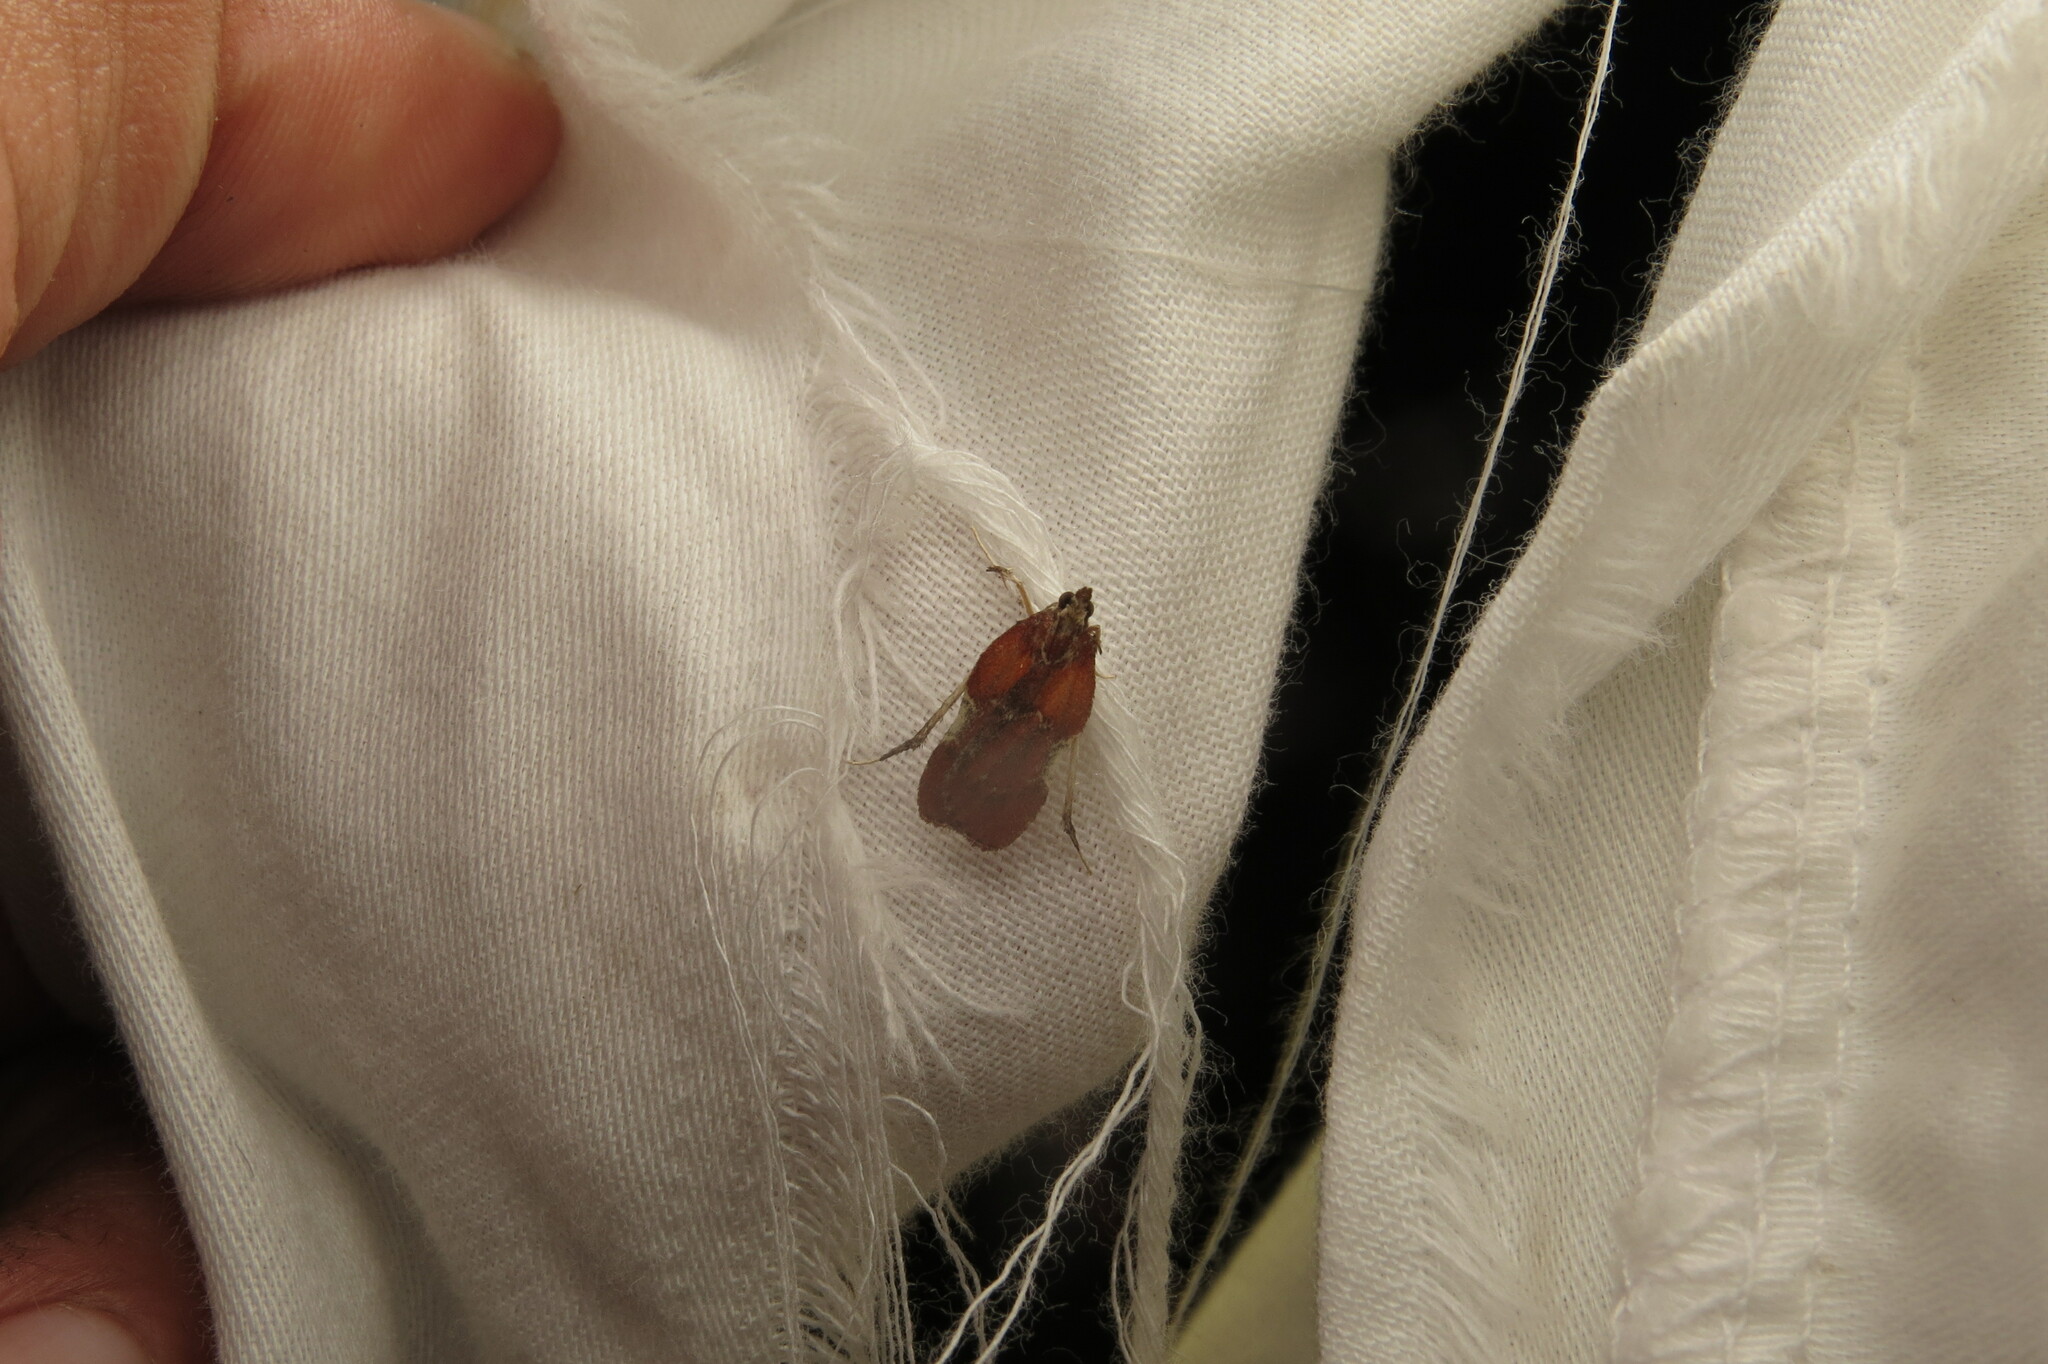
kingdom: Animalia
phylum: Arthropoda
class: Insecta
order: Lepidoptera
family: Pyralidae
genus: Galasa
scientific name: Galasa nigrinodis
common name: Boxwood leaftier moth
